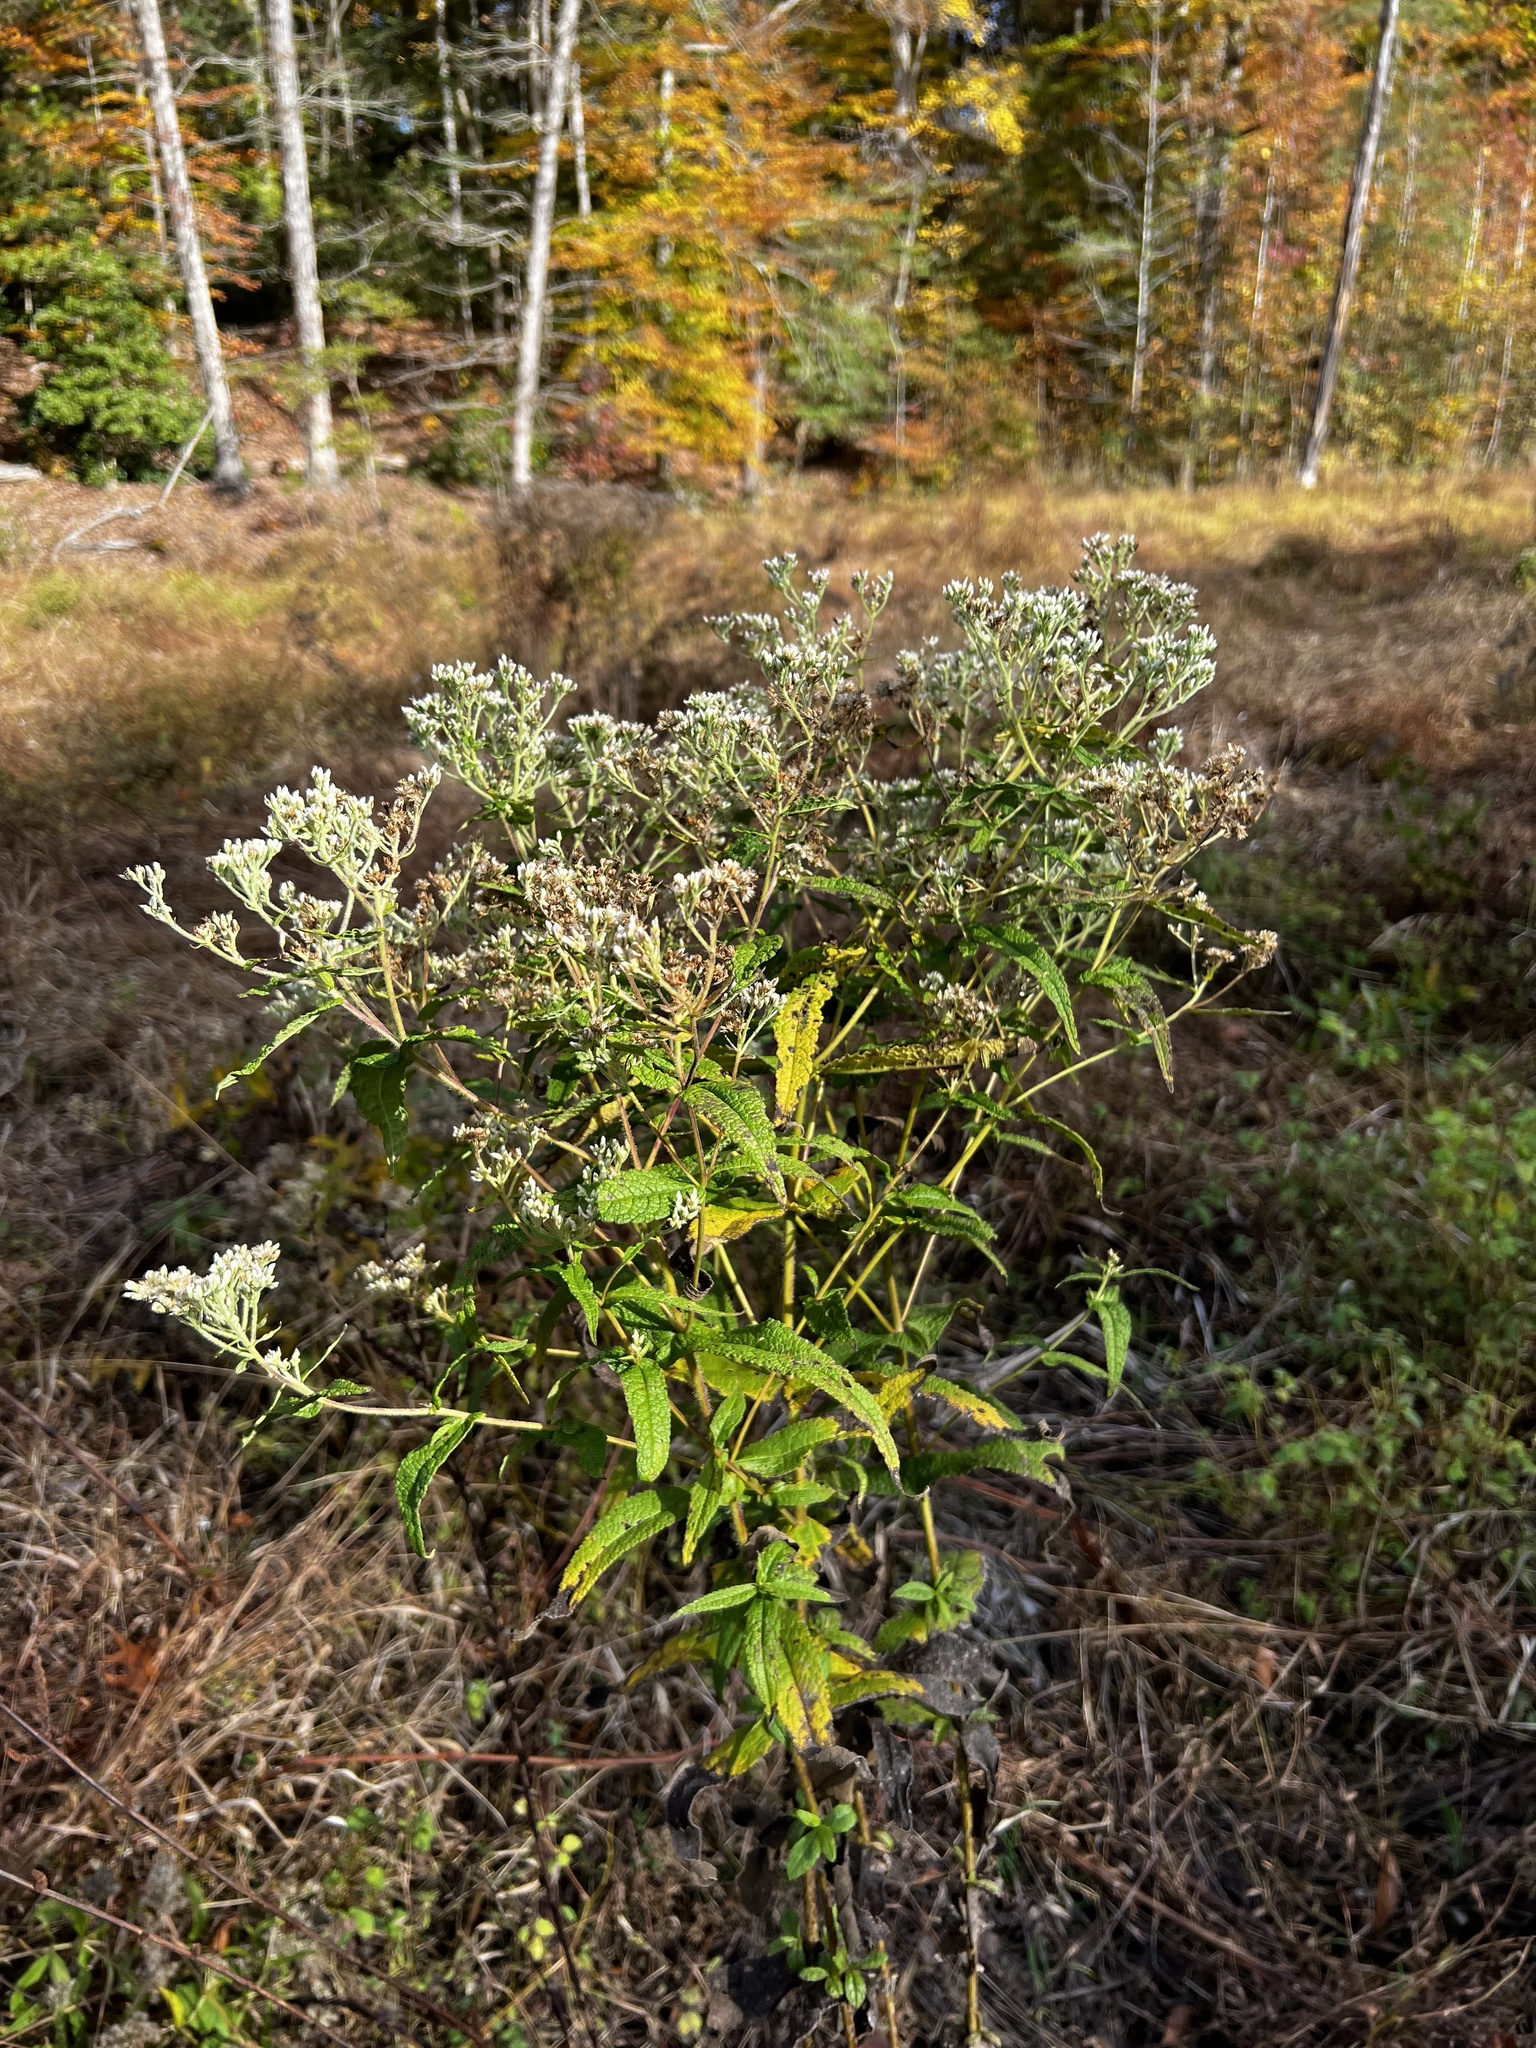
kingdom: Plantae
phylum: Tracheophyta
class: Magnoliopsida
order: Asterales
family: Asteraceae
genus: Eupatorium
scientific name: Eupatorium perfoliatum
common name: Boneset
